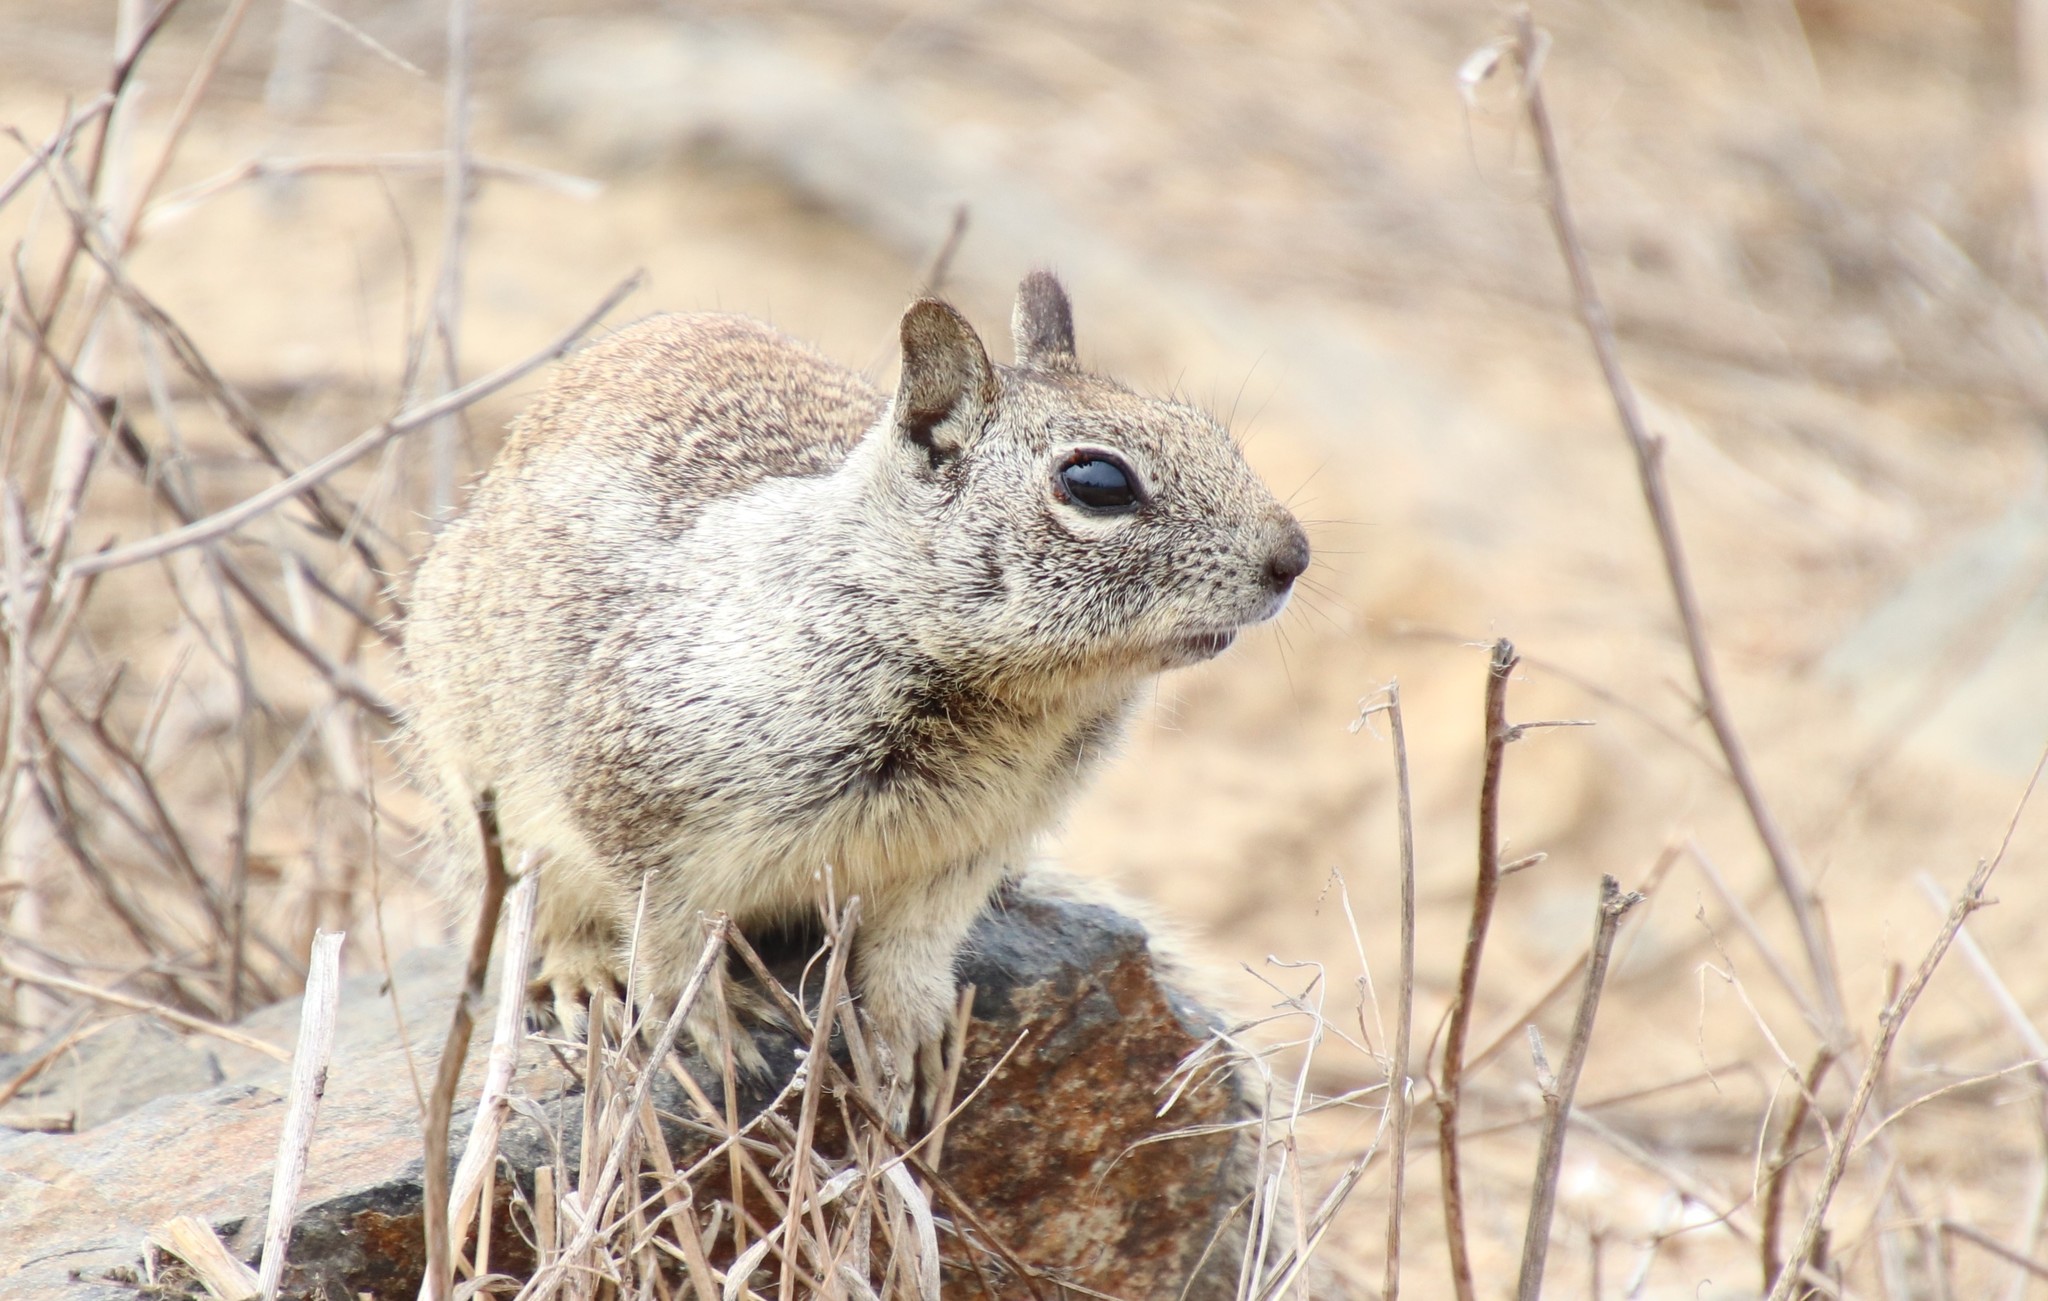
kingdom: Animalia
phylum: Chordata
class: Mammalia
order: Rodentia
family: Sciuridae
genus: Otospermophilus
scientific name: Otospermophilus beecheyi
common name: California ground squirrel
